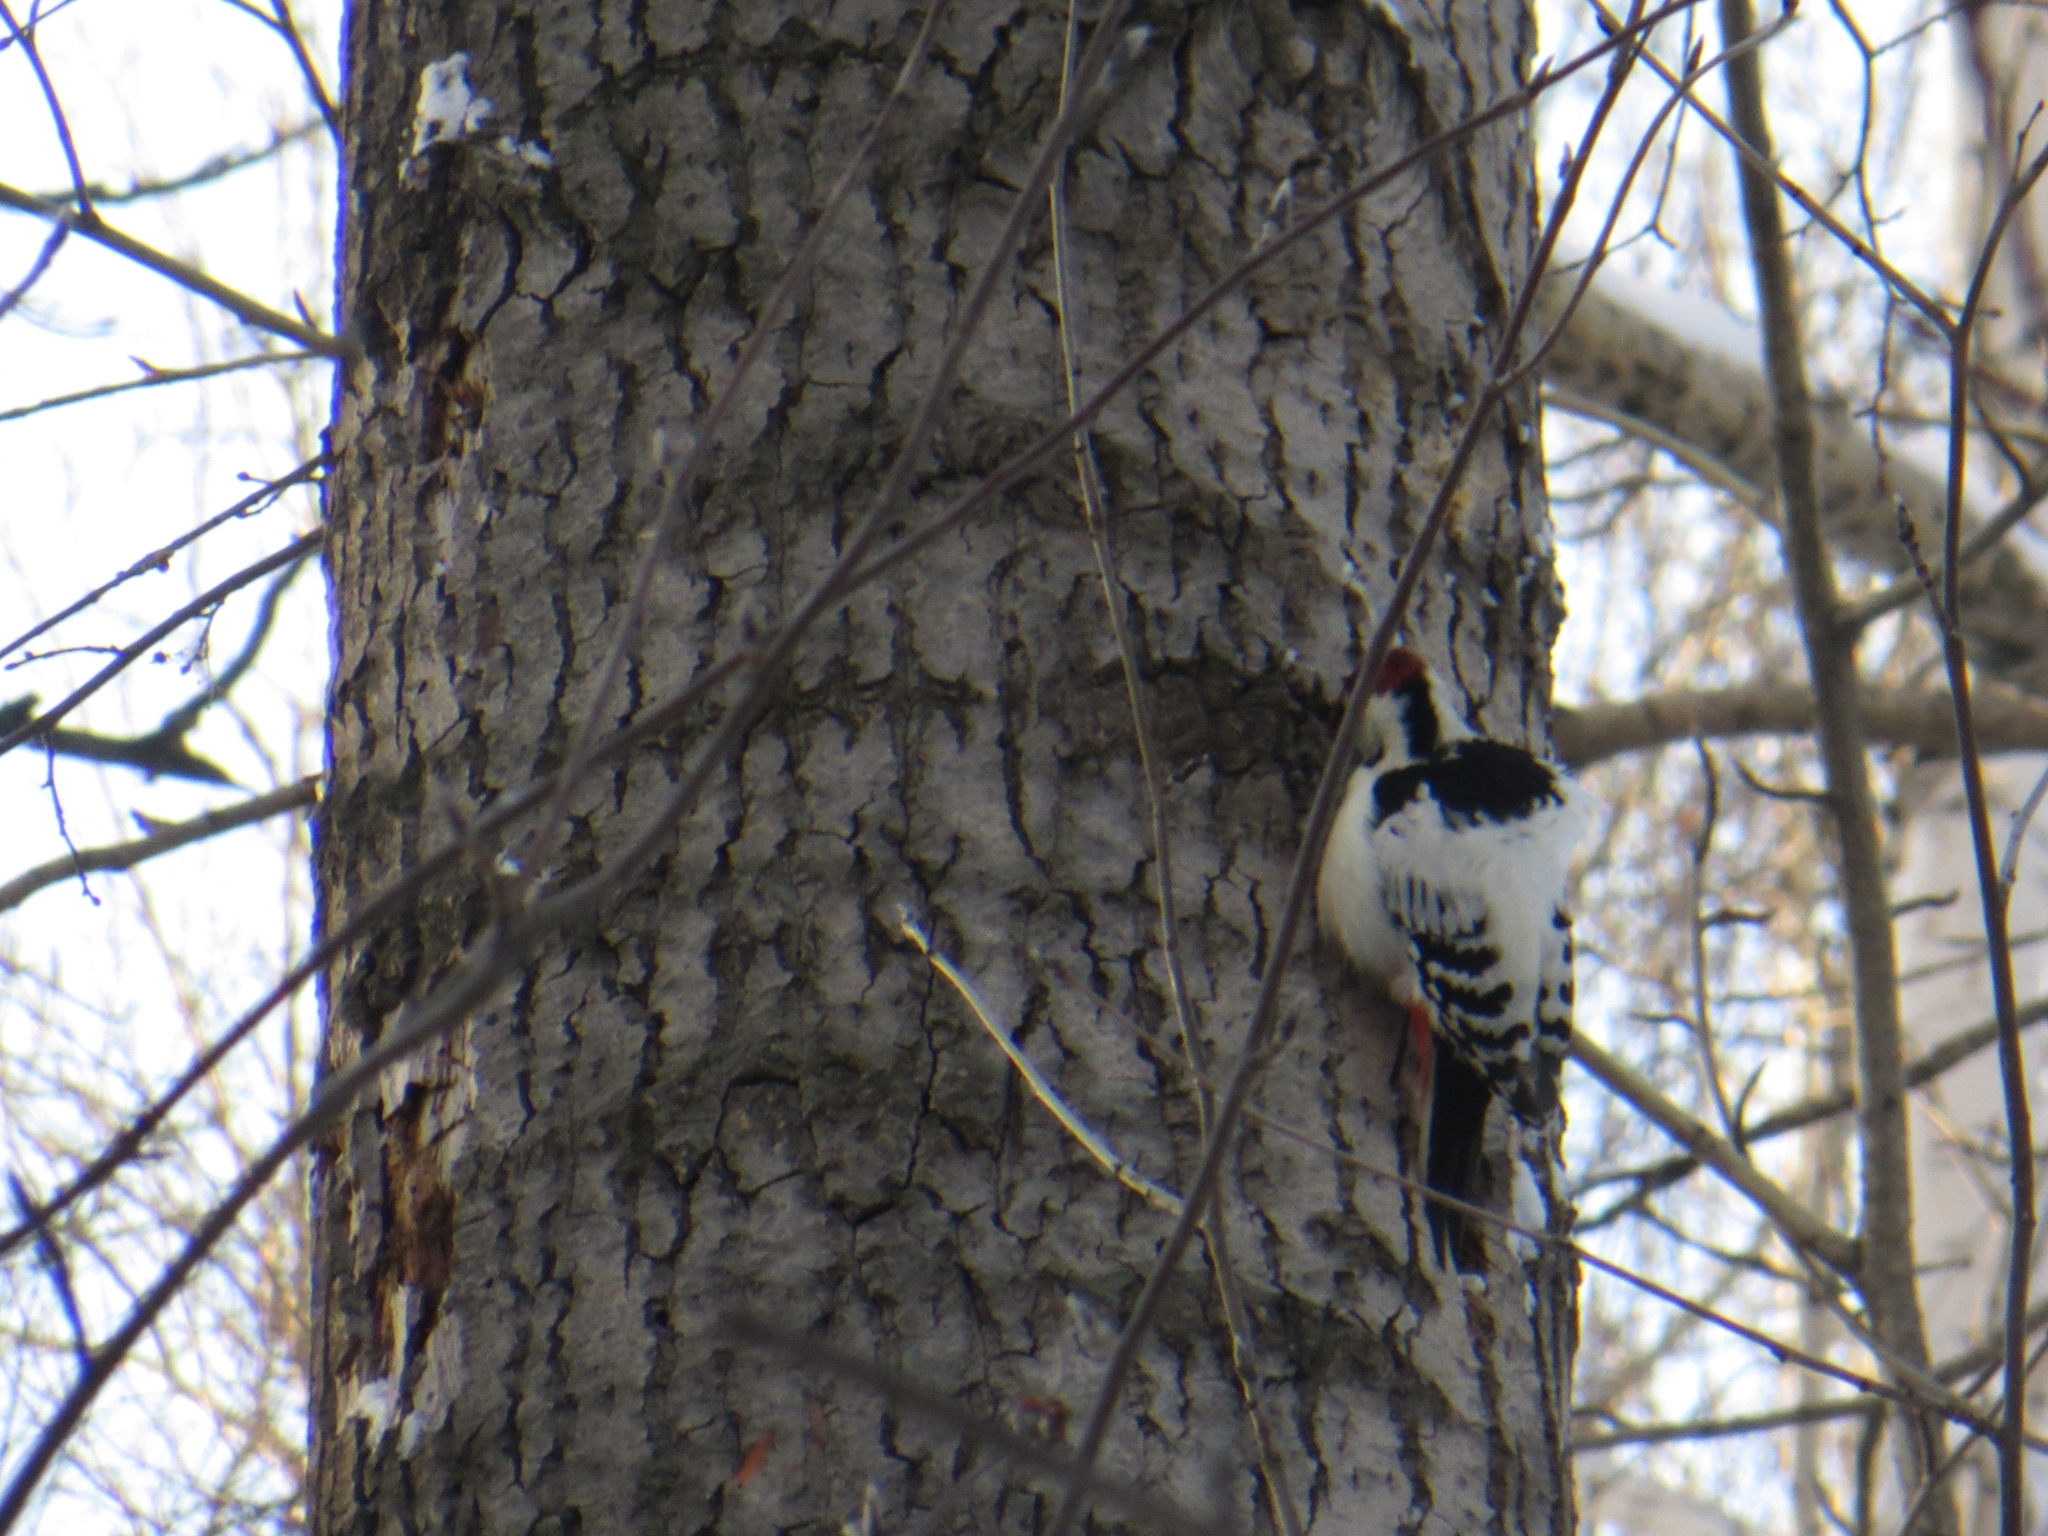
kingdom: Animalia
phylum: Chordata
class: Aves
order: Piciformes
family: Picidae
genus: Dendrocopos
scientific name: Dendrocopos leucotos
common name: White-backed woodpecker
